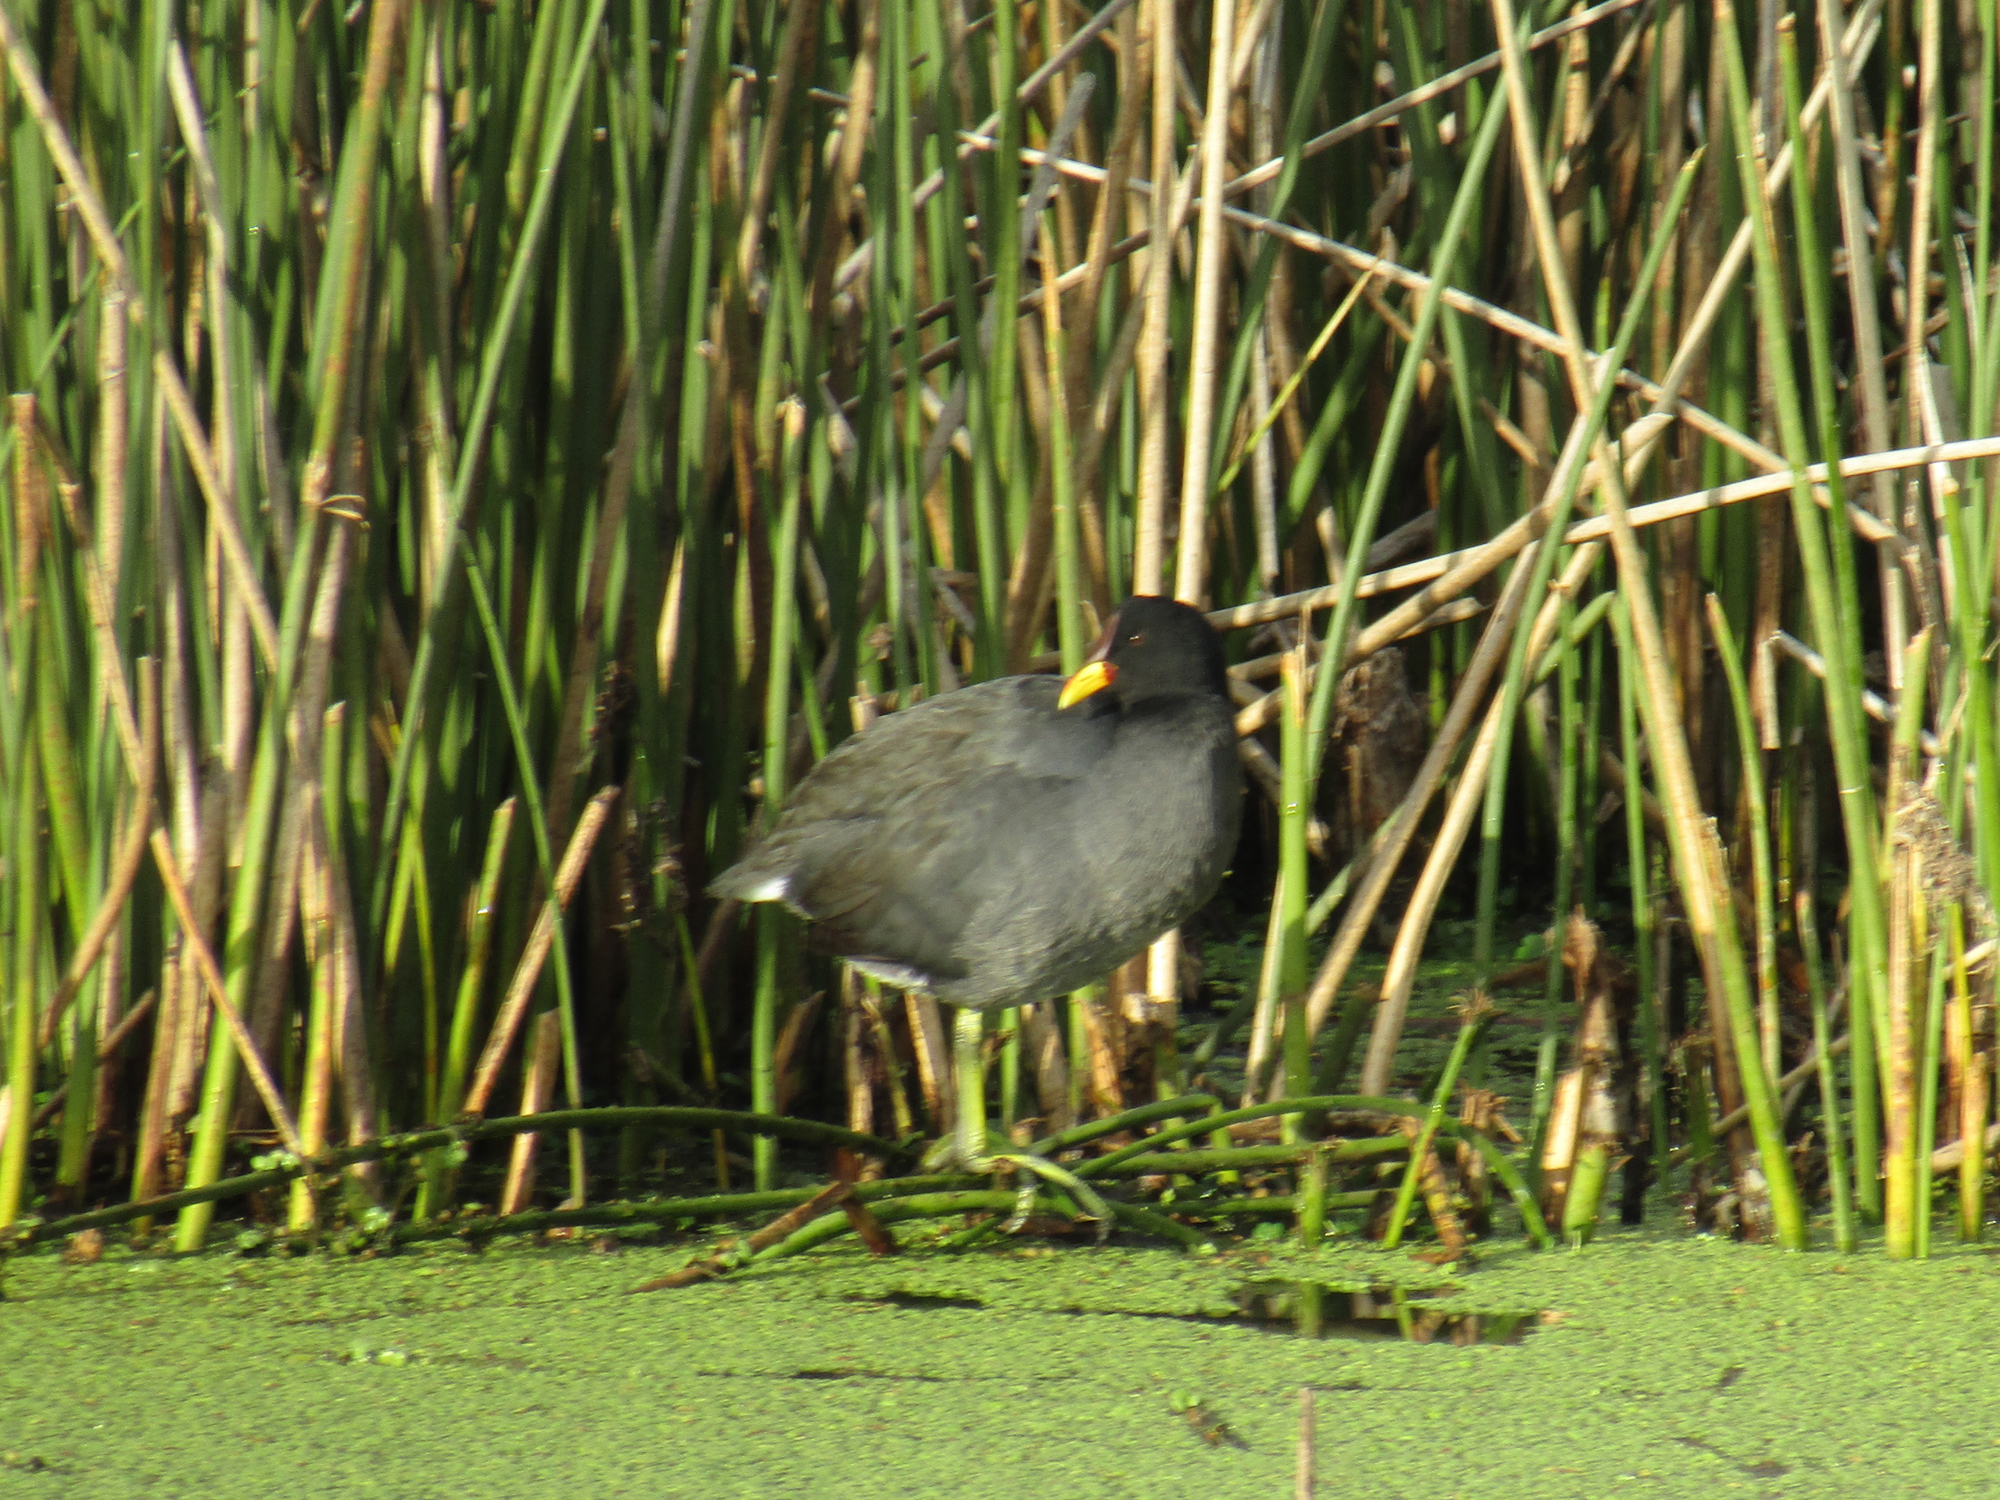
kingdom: Animalia
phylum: Chordata
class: Aves
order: Gruiformes
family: Rallidae
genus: Fulica
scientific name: Fulica rufifrons
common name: Red-fronted coot
